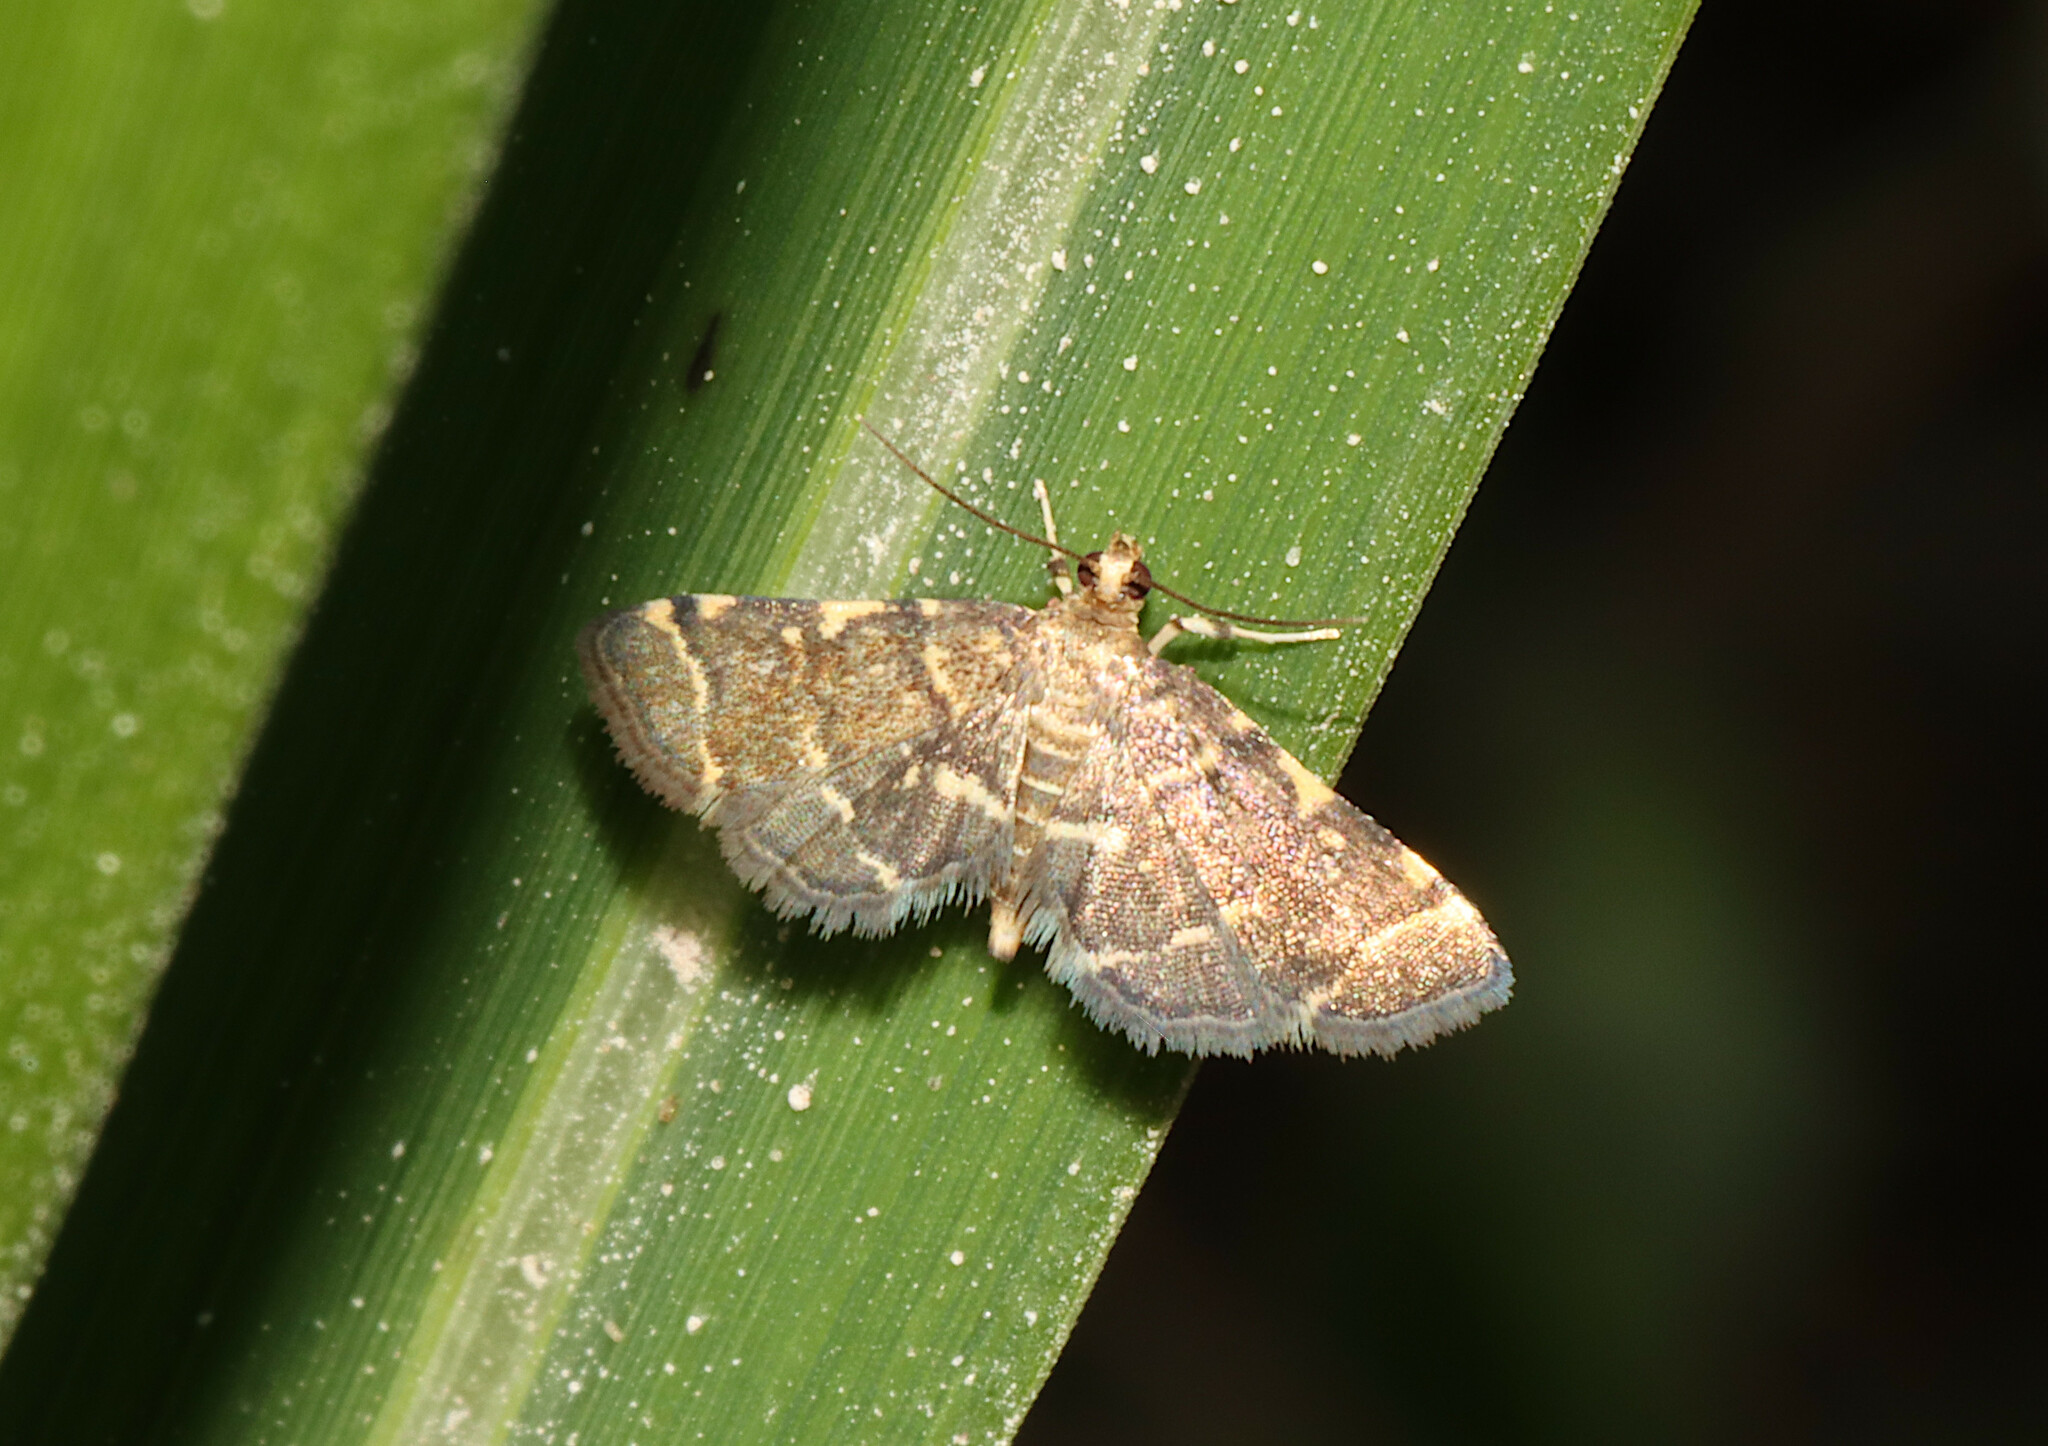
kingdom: Animalia
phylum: Arthropoda
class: Insecta
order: Lepidoptera
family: Crambidae
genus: Anageshna
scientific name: Anageshna primordialis
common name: Yellow-spotted webworm moth
